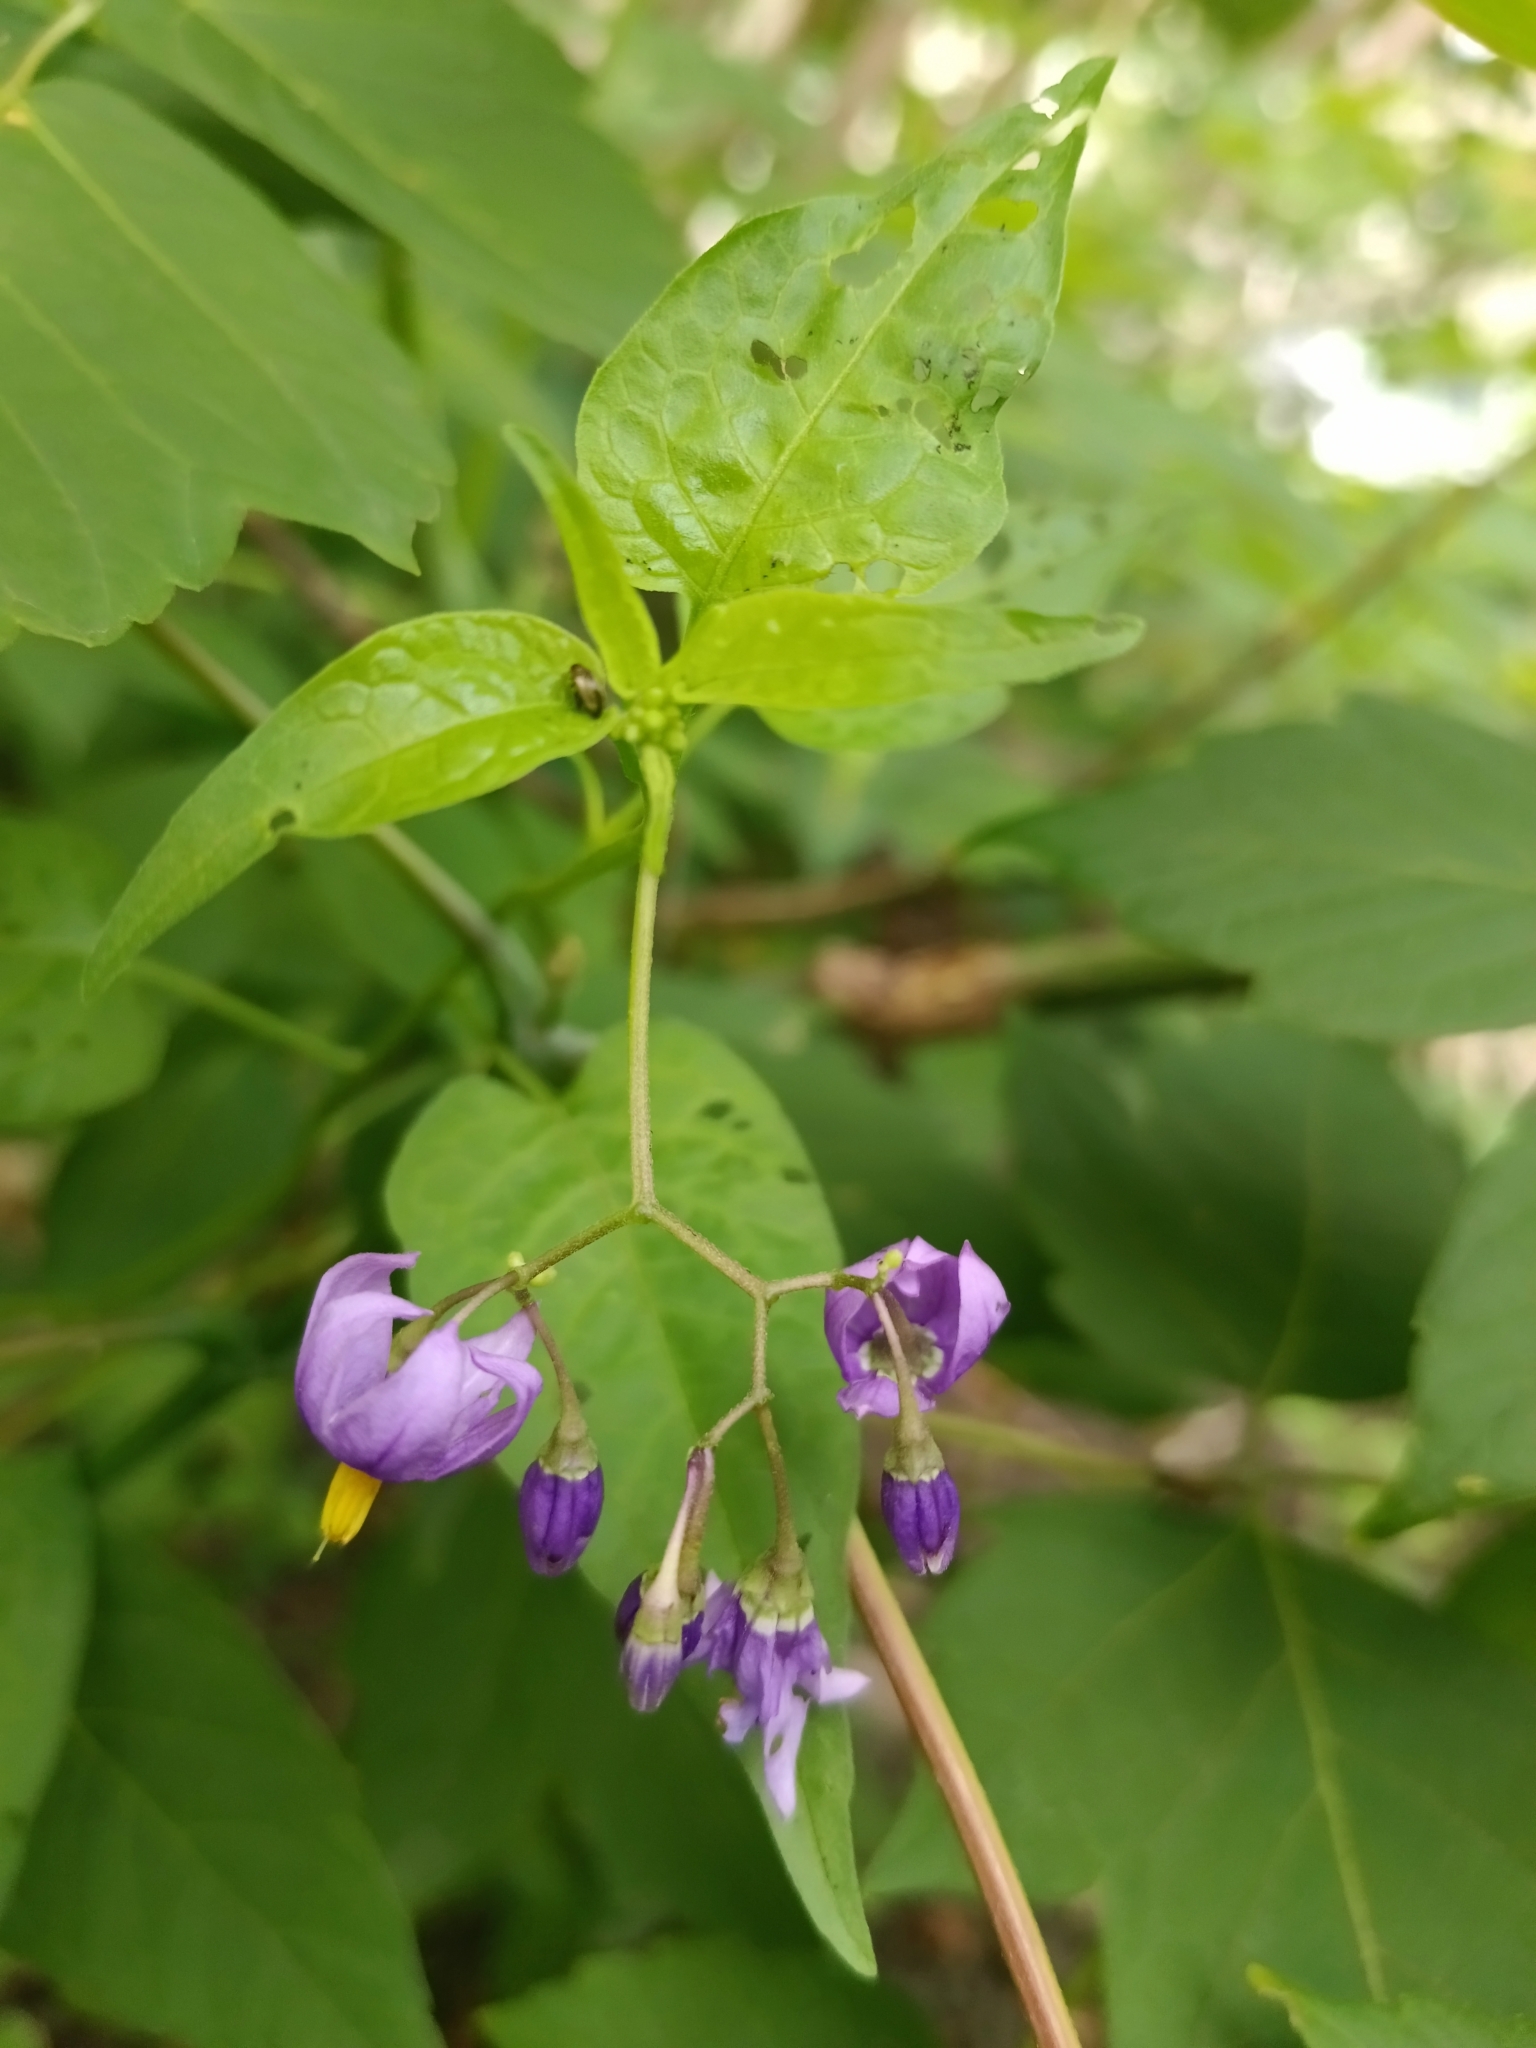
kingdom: Plantae
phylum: Tracheophyta
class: Magnoliopsida
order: Asterales
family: Campanulaceae
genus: Campanula
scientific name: Campanula rapunculoides
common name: Creeping bellflower
